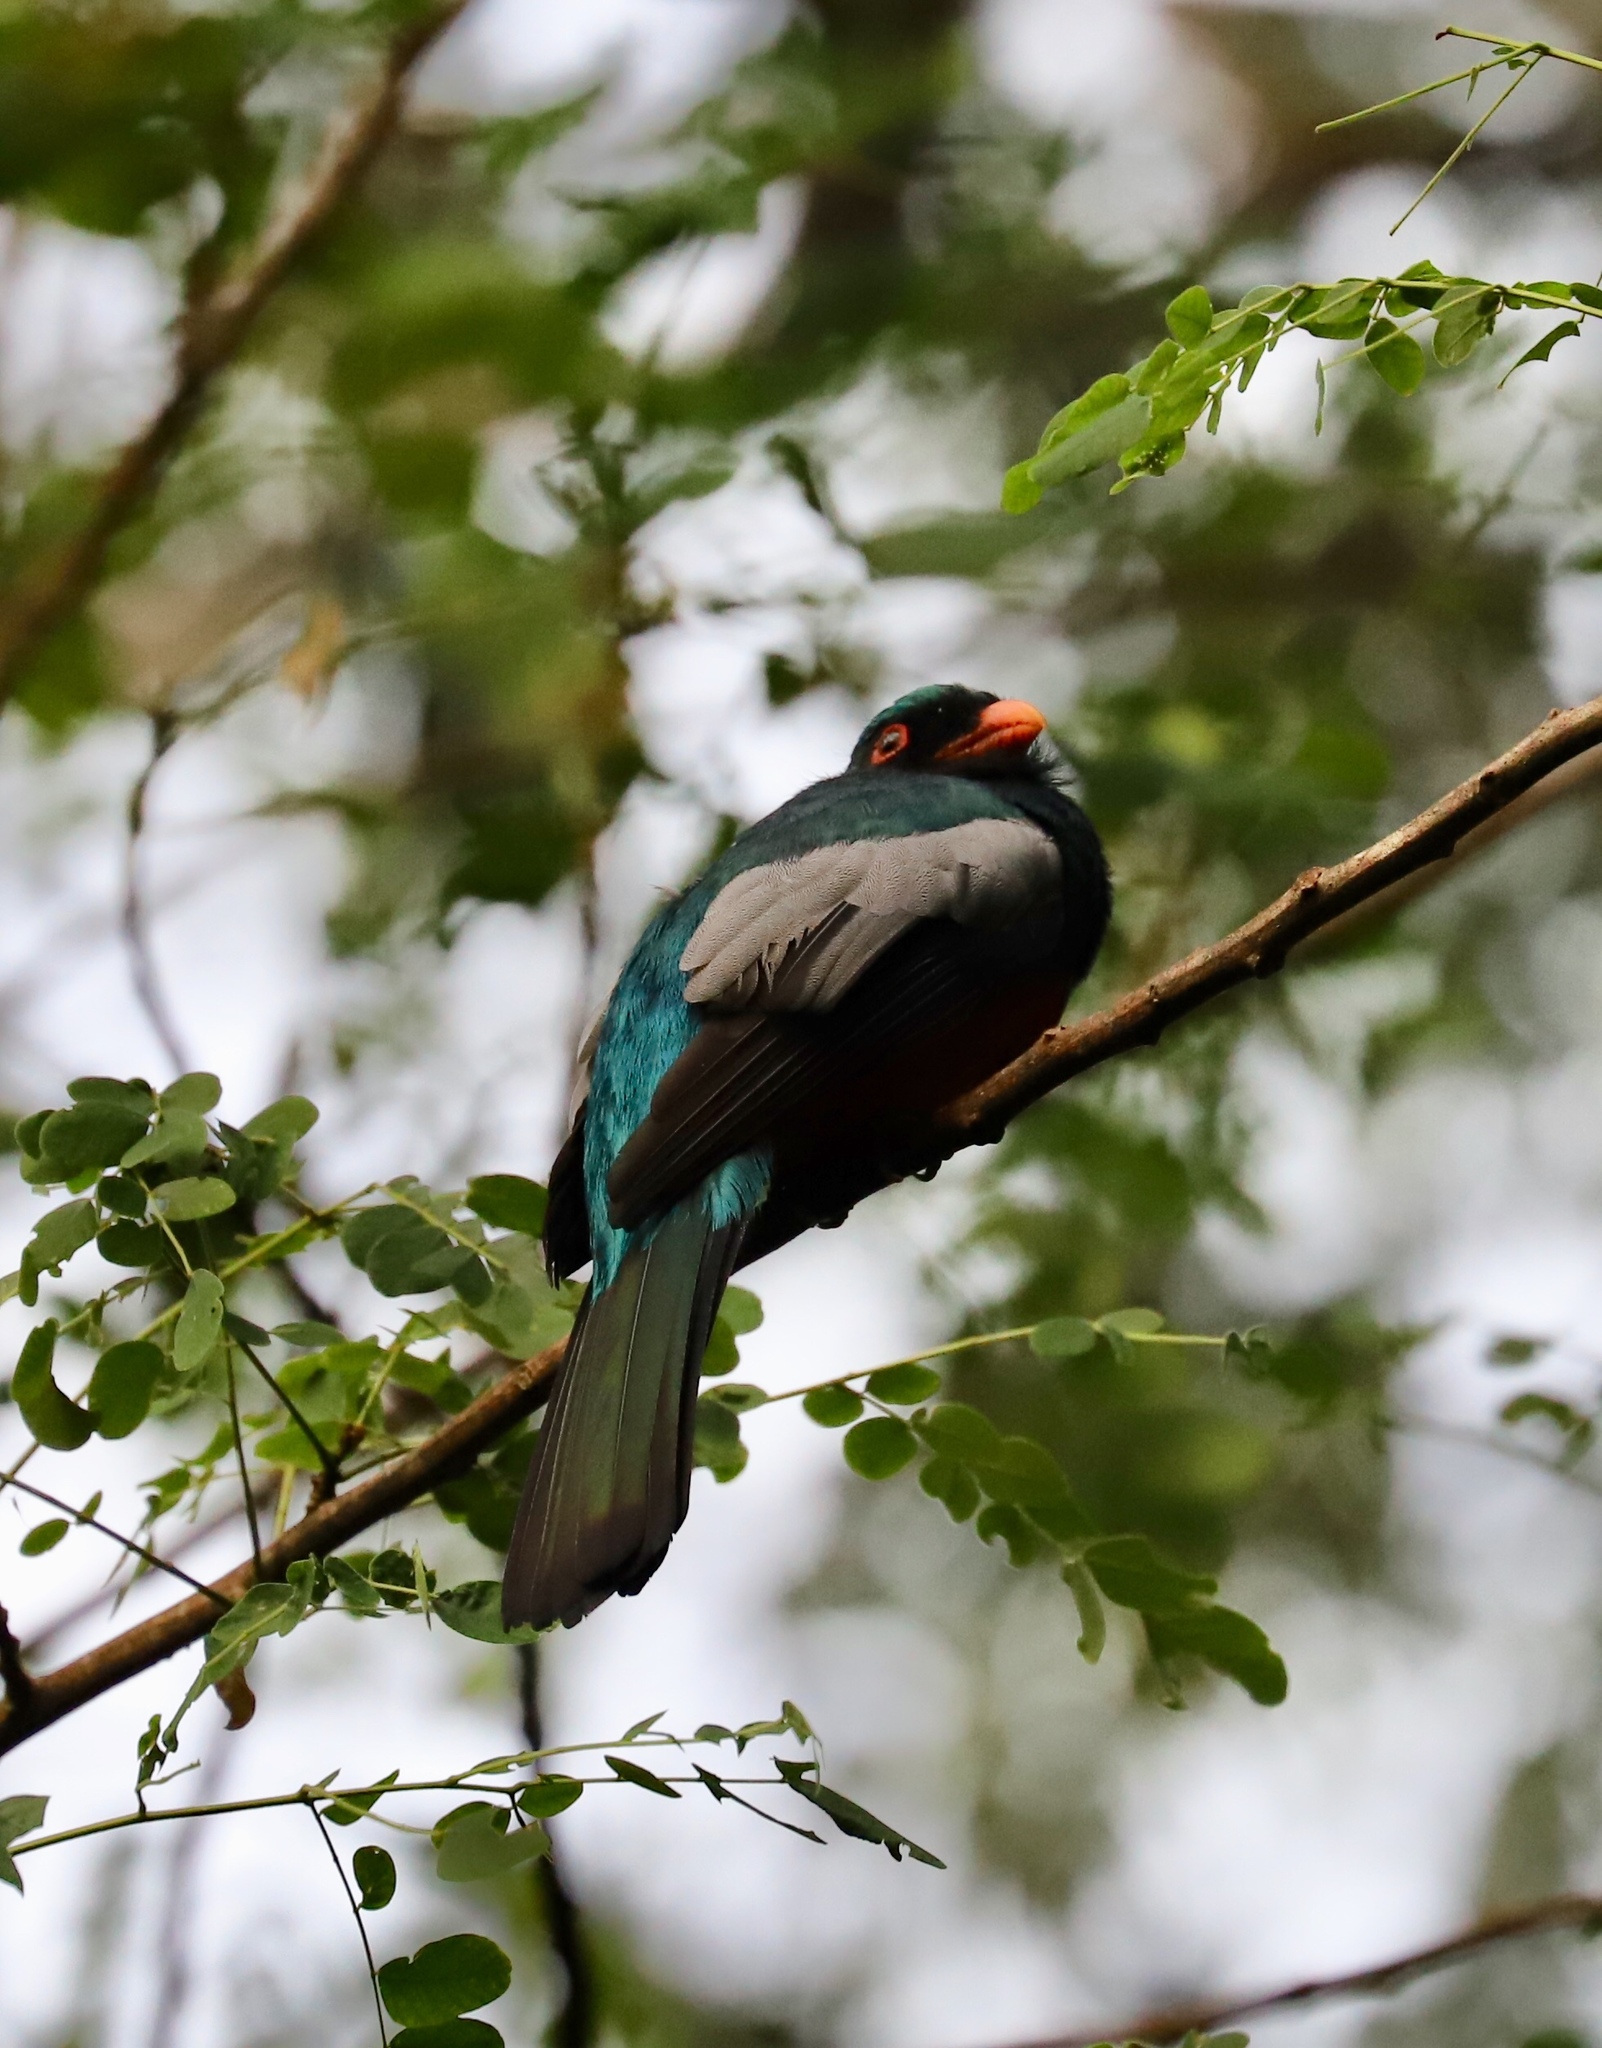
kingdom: Animalia
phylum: Chordata
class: Aves
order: Trogoniformes
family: Trogonidae
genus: Trogon
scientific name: Trogon massena
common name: Slaty-tailed trogon
